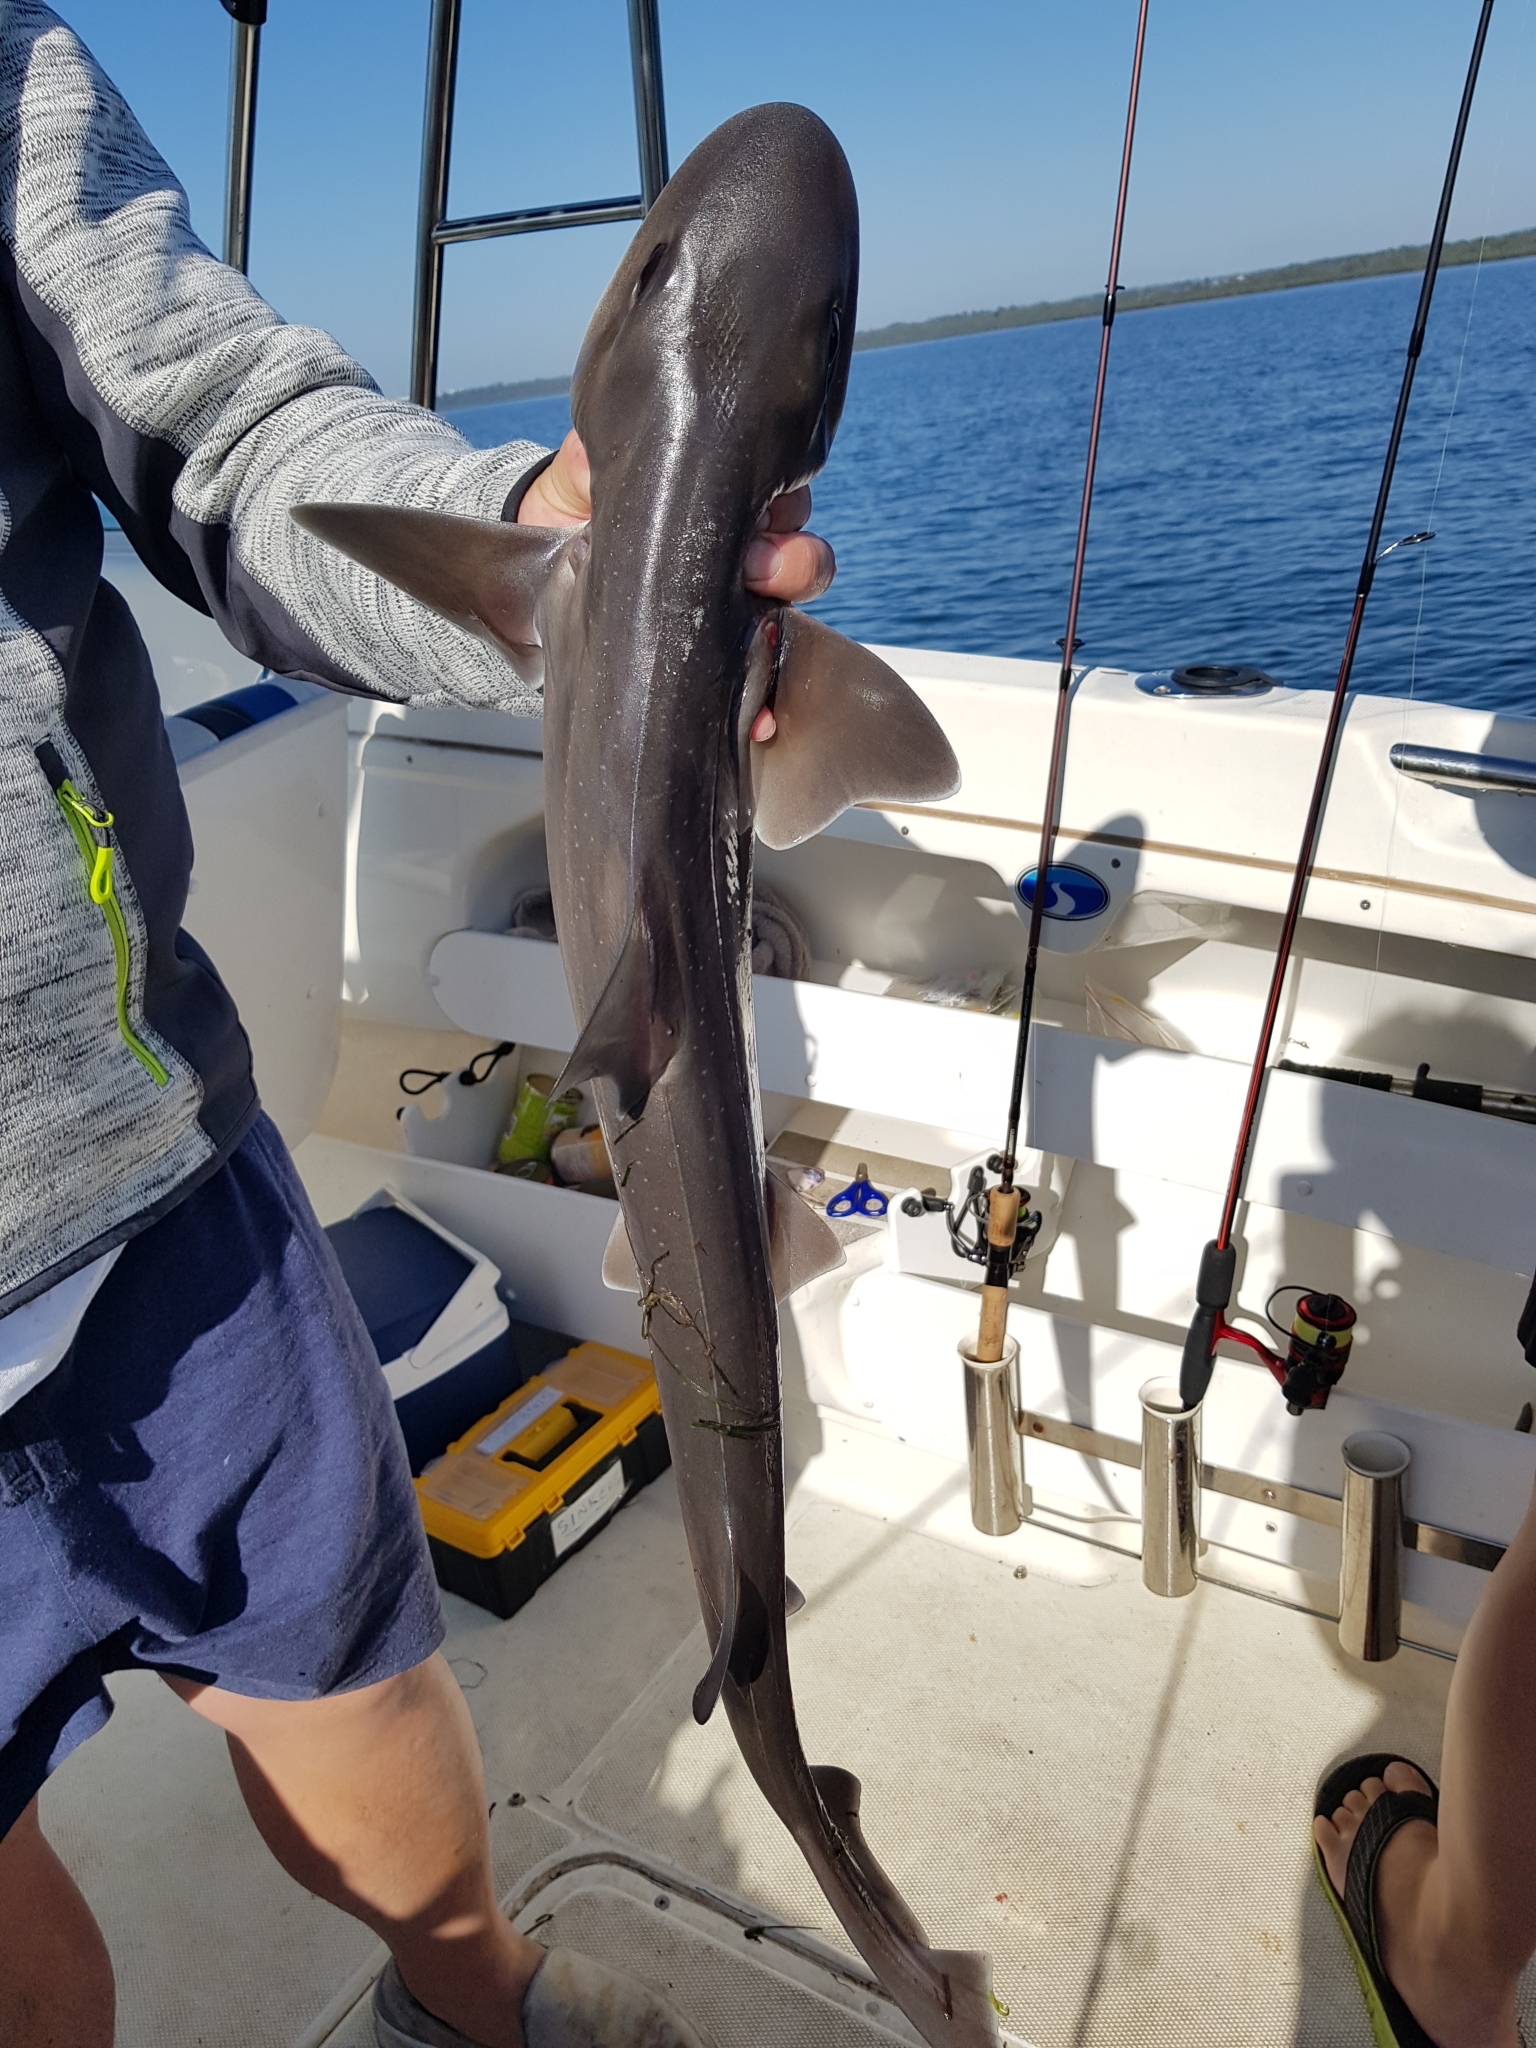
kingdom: Animalia
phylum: Chordata
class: Elasmobranchii
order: Carcharhiniformes
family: Triakidae
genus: Mustelus
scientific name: Mustelus antarcticus
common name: Gummy shark
